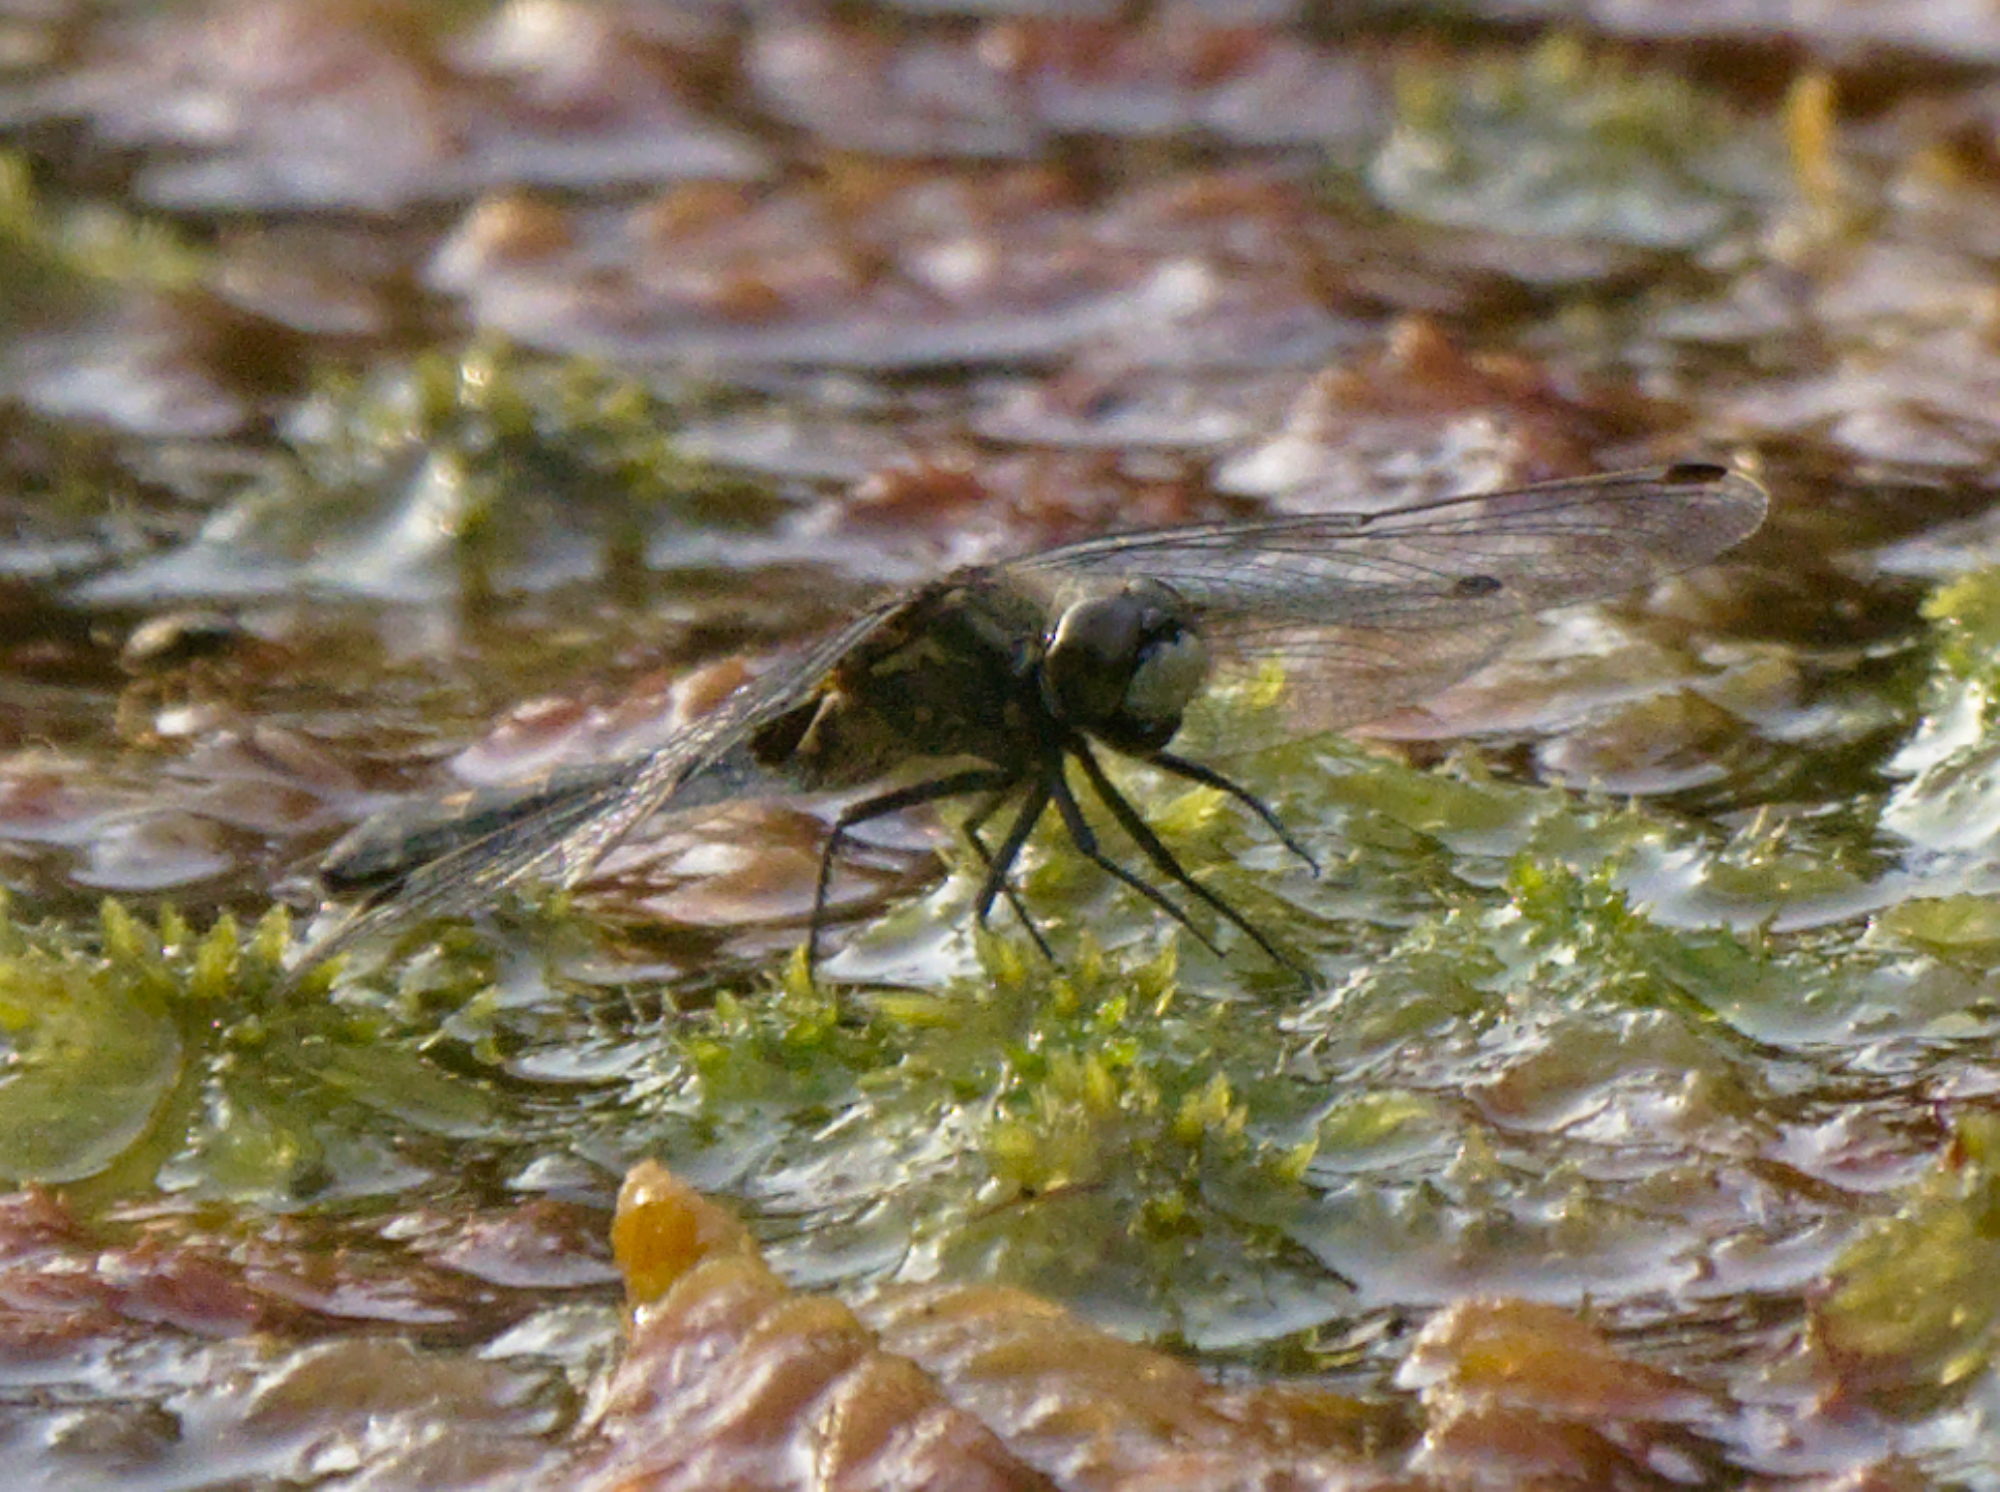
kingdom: Animalia
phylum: Arthropoda
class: Insecta
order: Odonata
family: Libellulidae
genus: Leucorrhinia
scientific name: Leucorrhinia dubia
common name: White-faced darter
